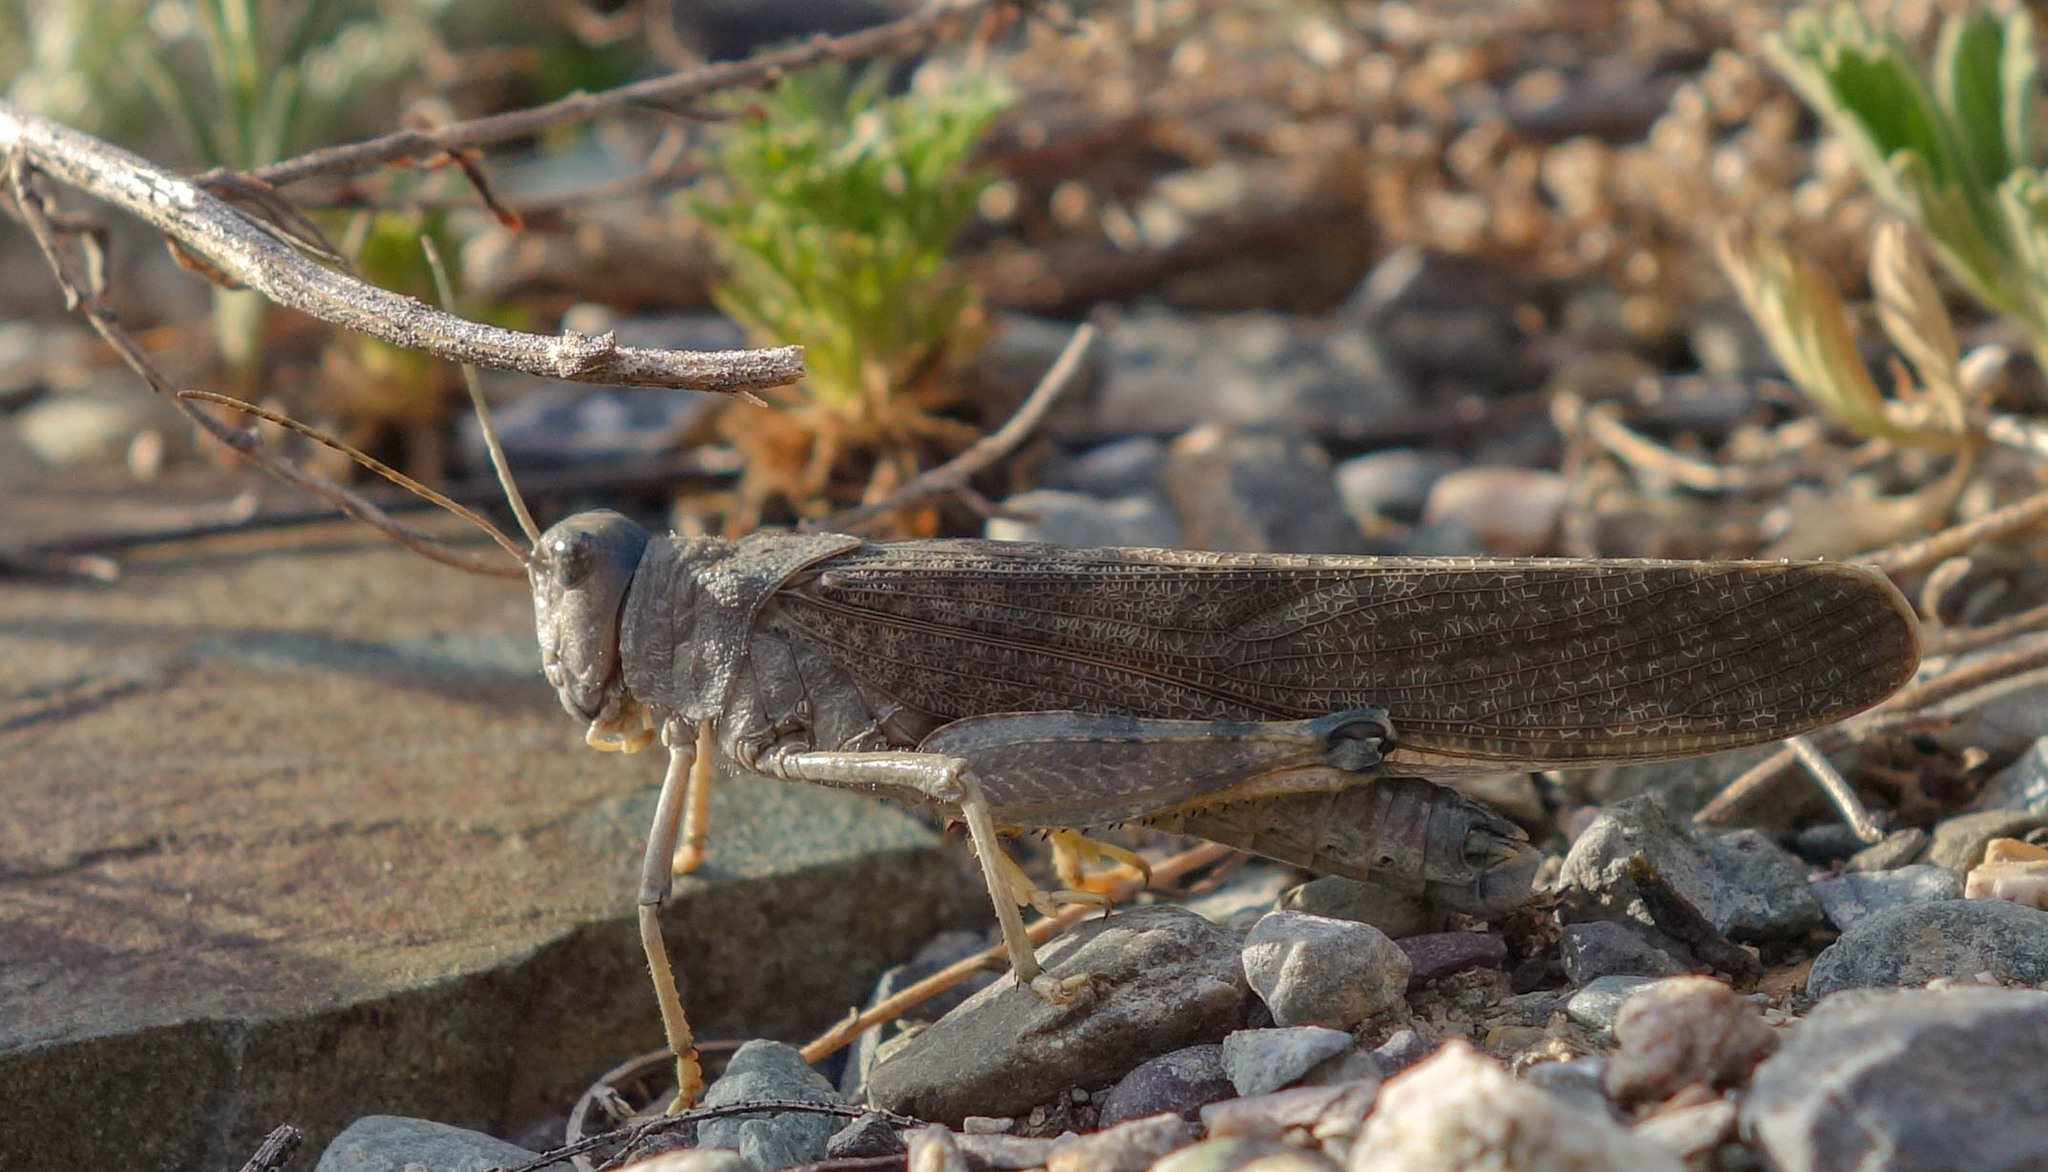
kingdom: Animalia
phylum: Arthropoda
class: Insecta
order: Orthoptera
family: Acrididae
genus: Bryodema
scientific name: Bryodema gebleri
